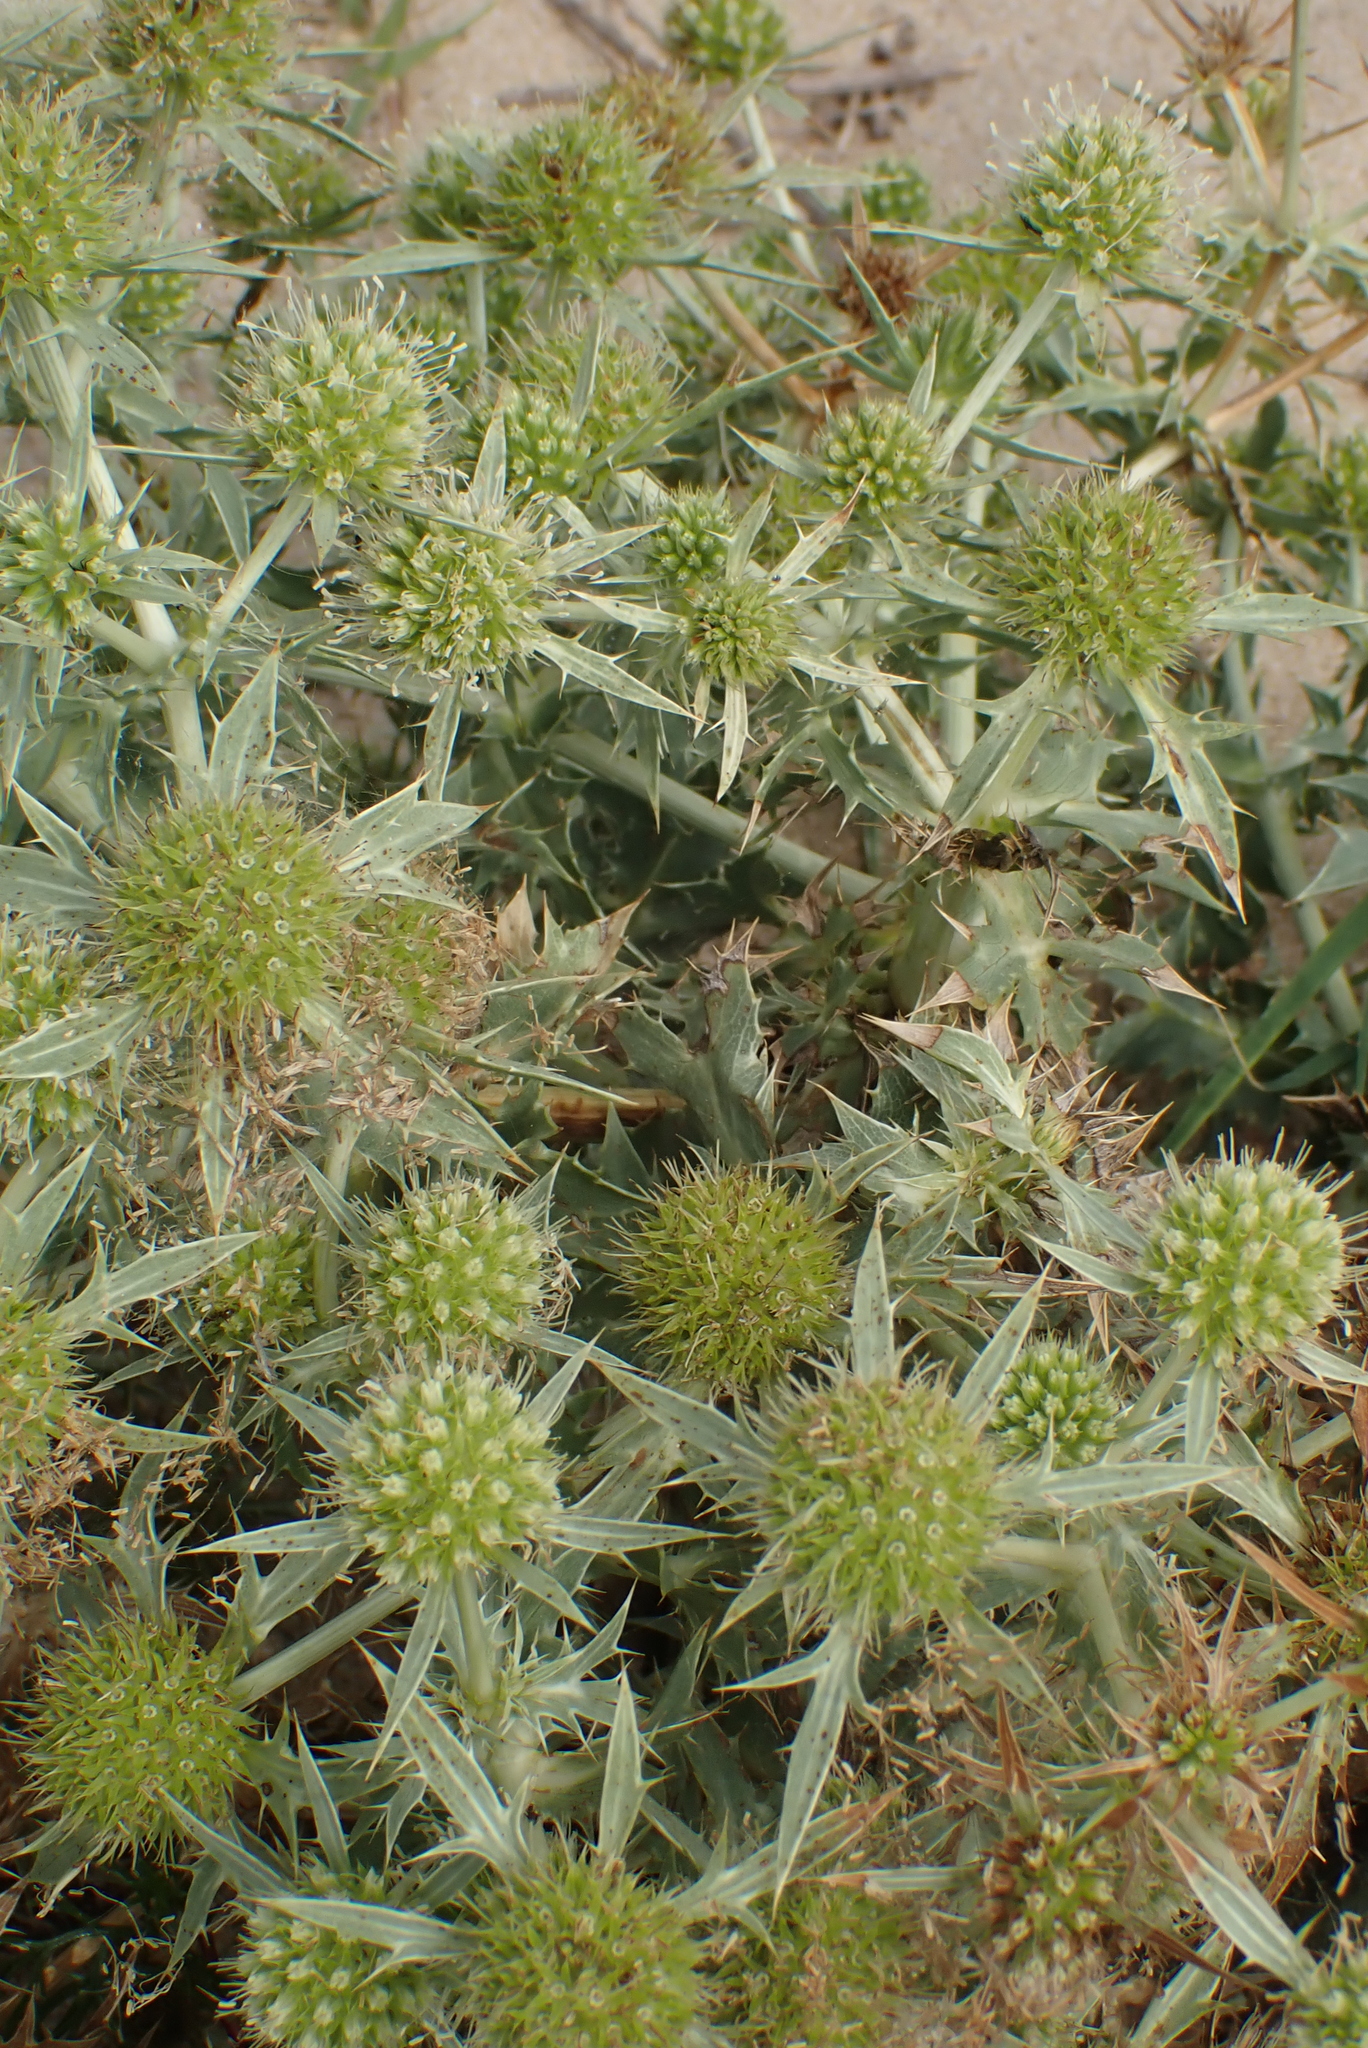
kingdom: Plantae
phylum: Tracheophyta
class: Magnoliopsida
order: Apiales
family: Apiaceae
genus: Eryngium
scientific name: Eryngium campestre
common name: Field eryngo
